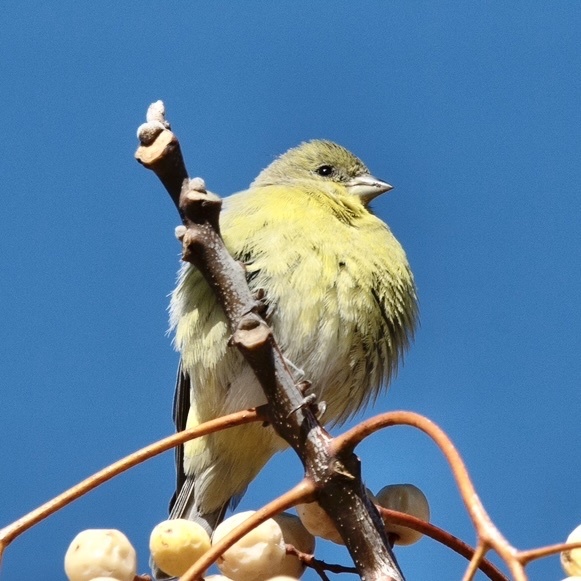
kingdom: Animalia
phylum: Chordata
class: Aves
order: Passeriformes
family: Fringillidae
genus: Spinus
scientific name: Spinus psaltria
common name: Lesser goldfinch
